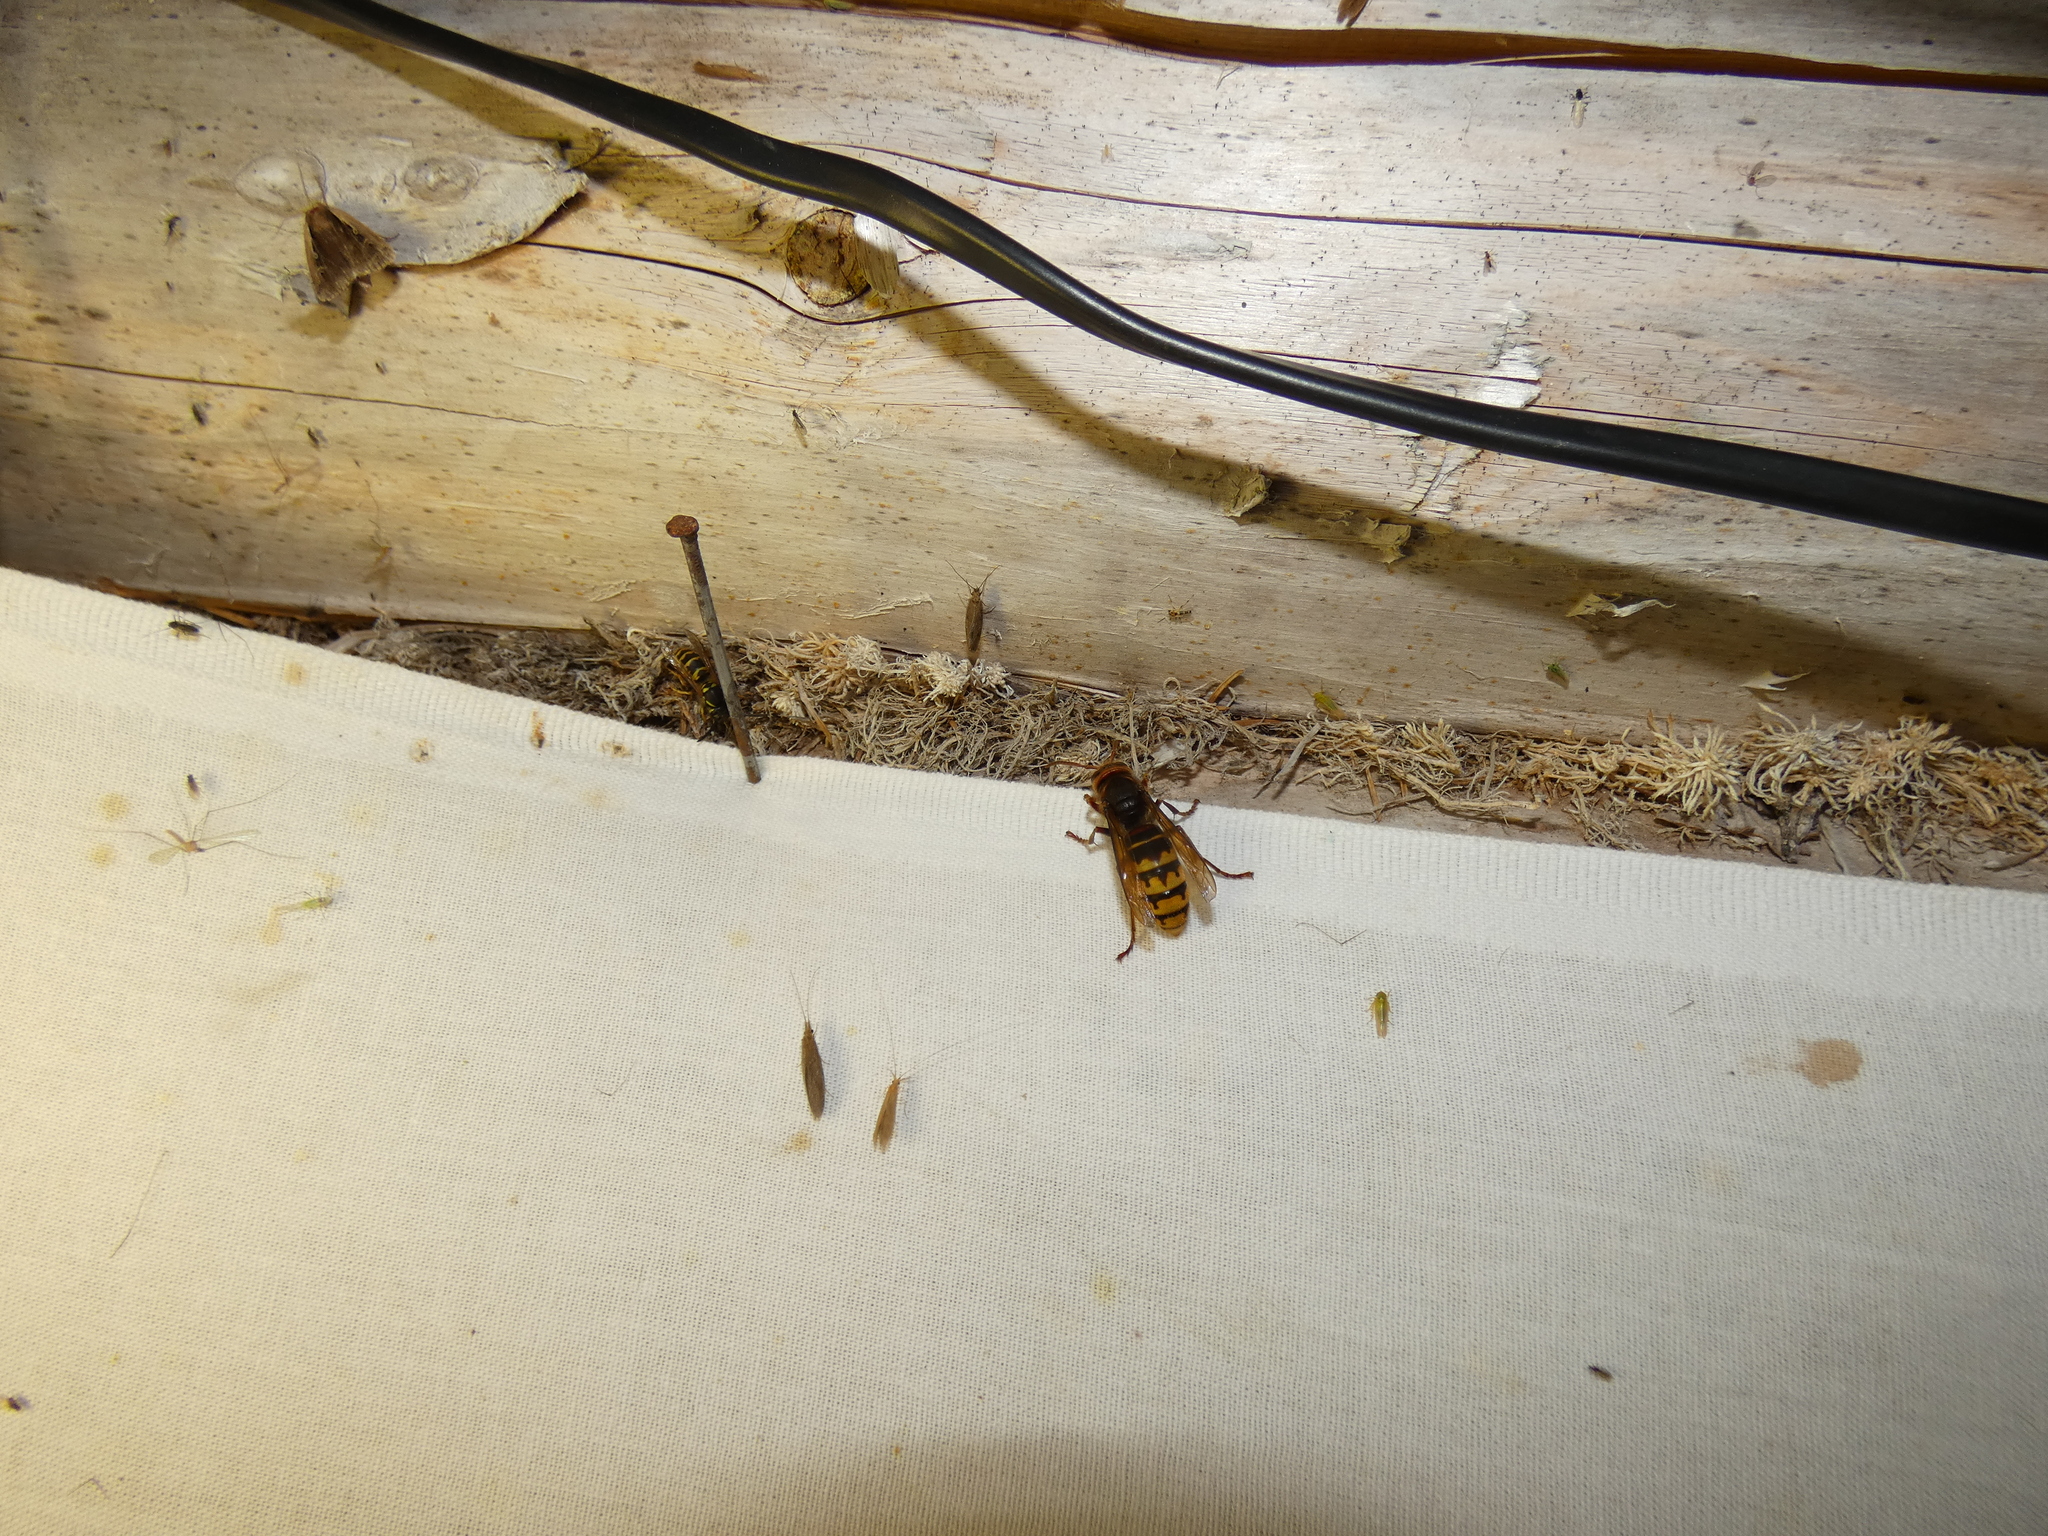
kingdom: Animalia
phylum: Arthropoda
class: Insecta
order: Hymenoptera
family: Vespidae
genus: Vespa
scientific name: Vespa crabro
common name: Hornet
